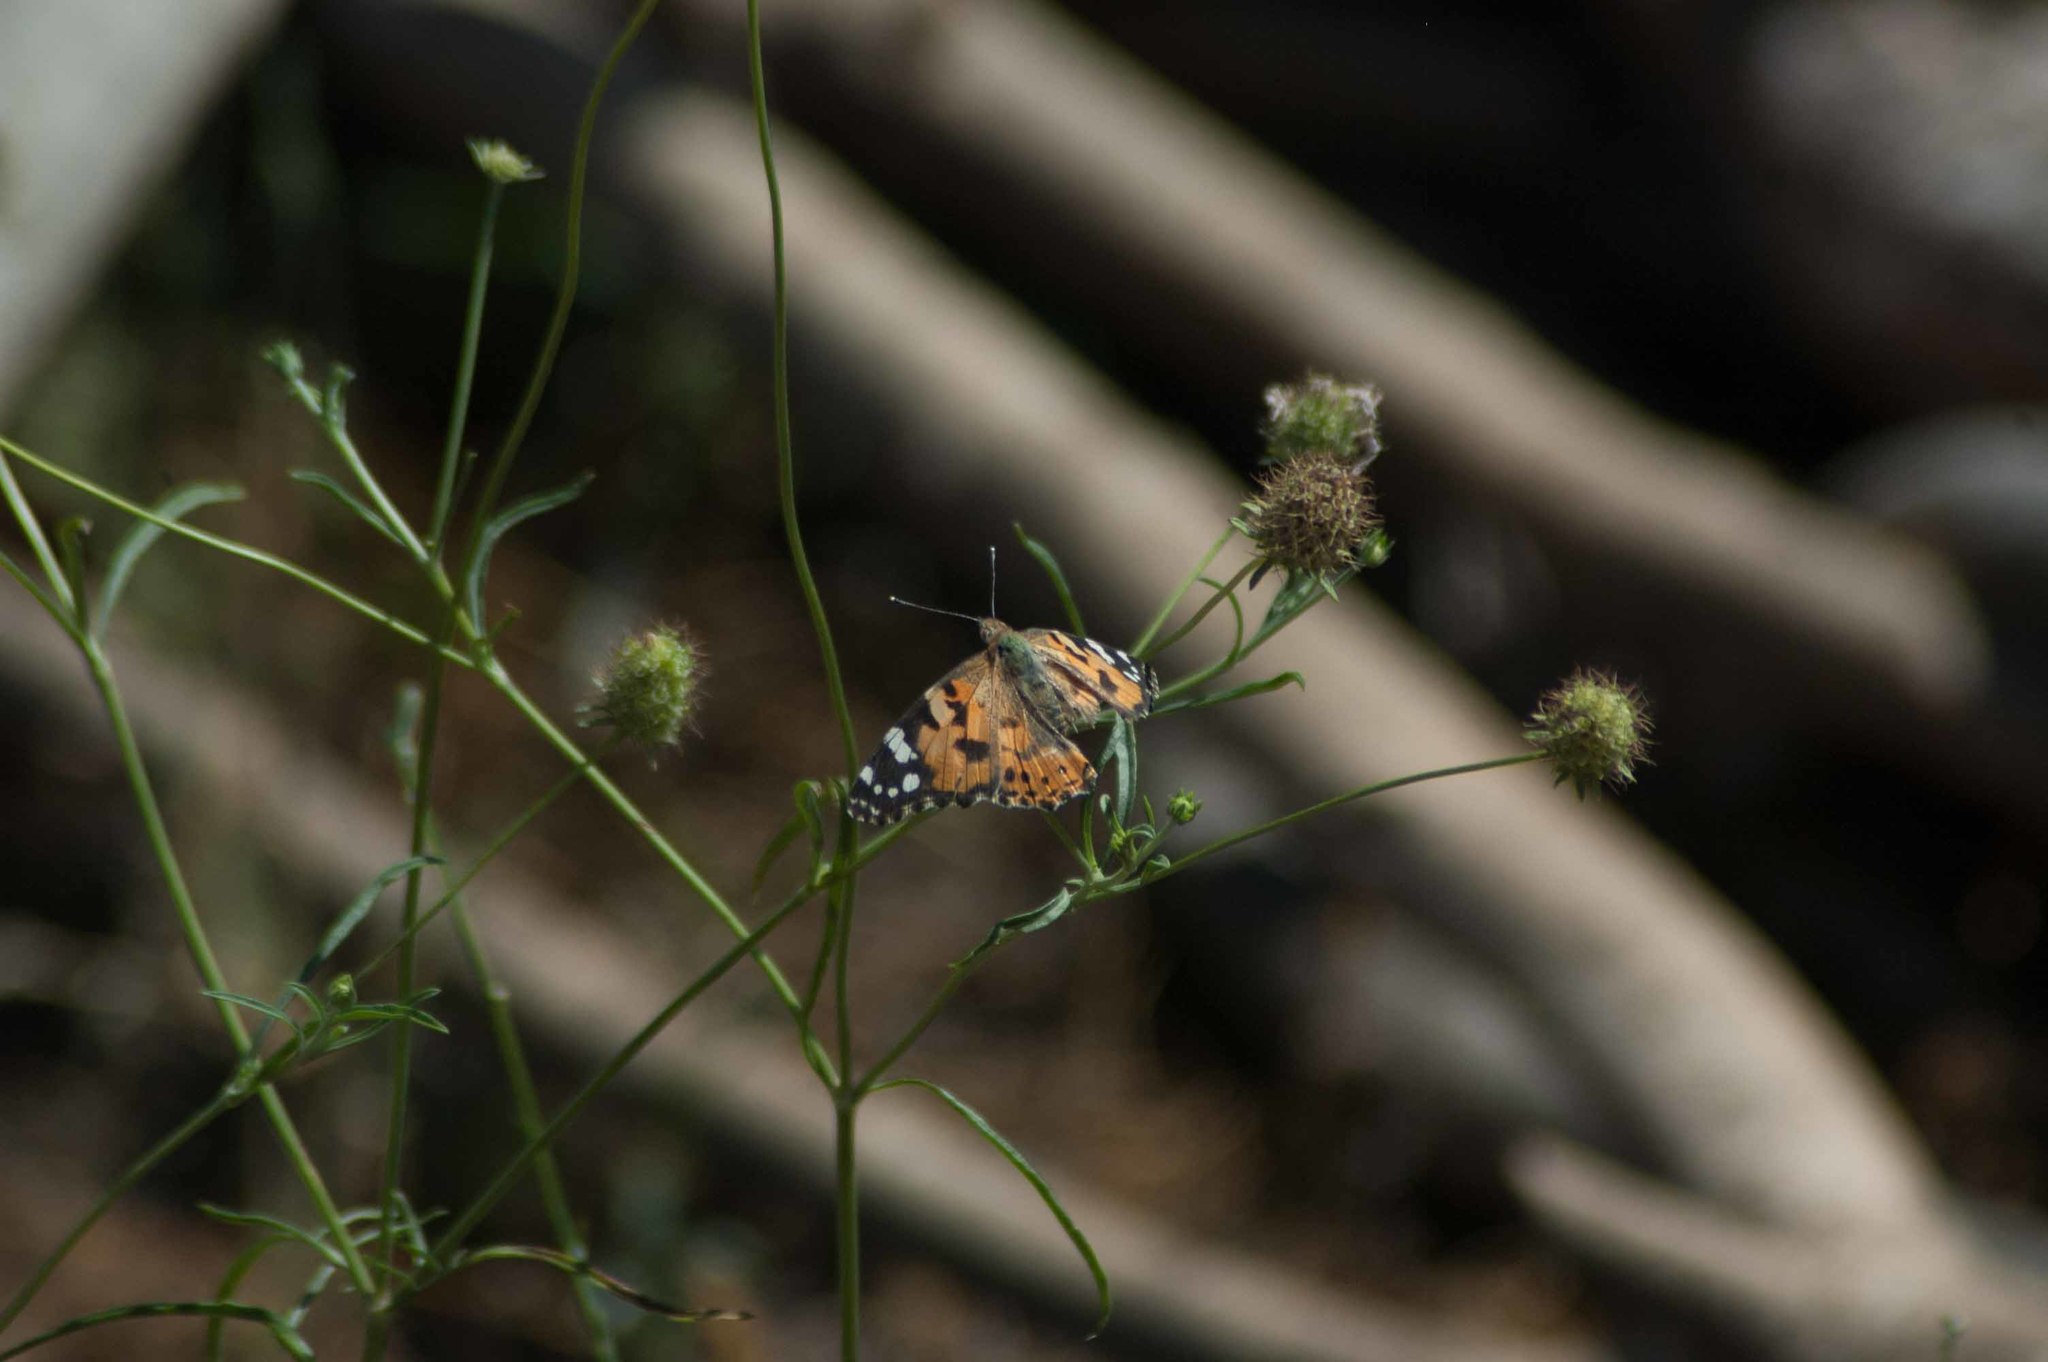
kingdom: Animalia
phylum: Arthropoda
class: Insecta
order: Lepidoptera
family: Nymphalidae
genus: Vanessa
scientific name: Vanessa cardui
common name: Painted lady
